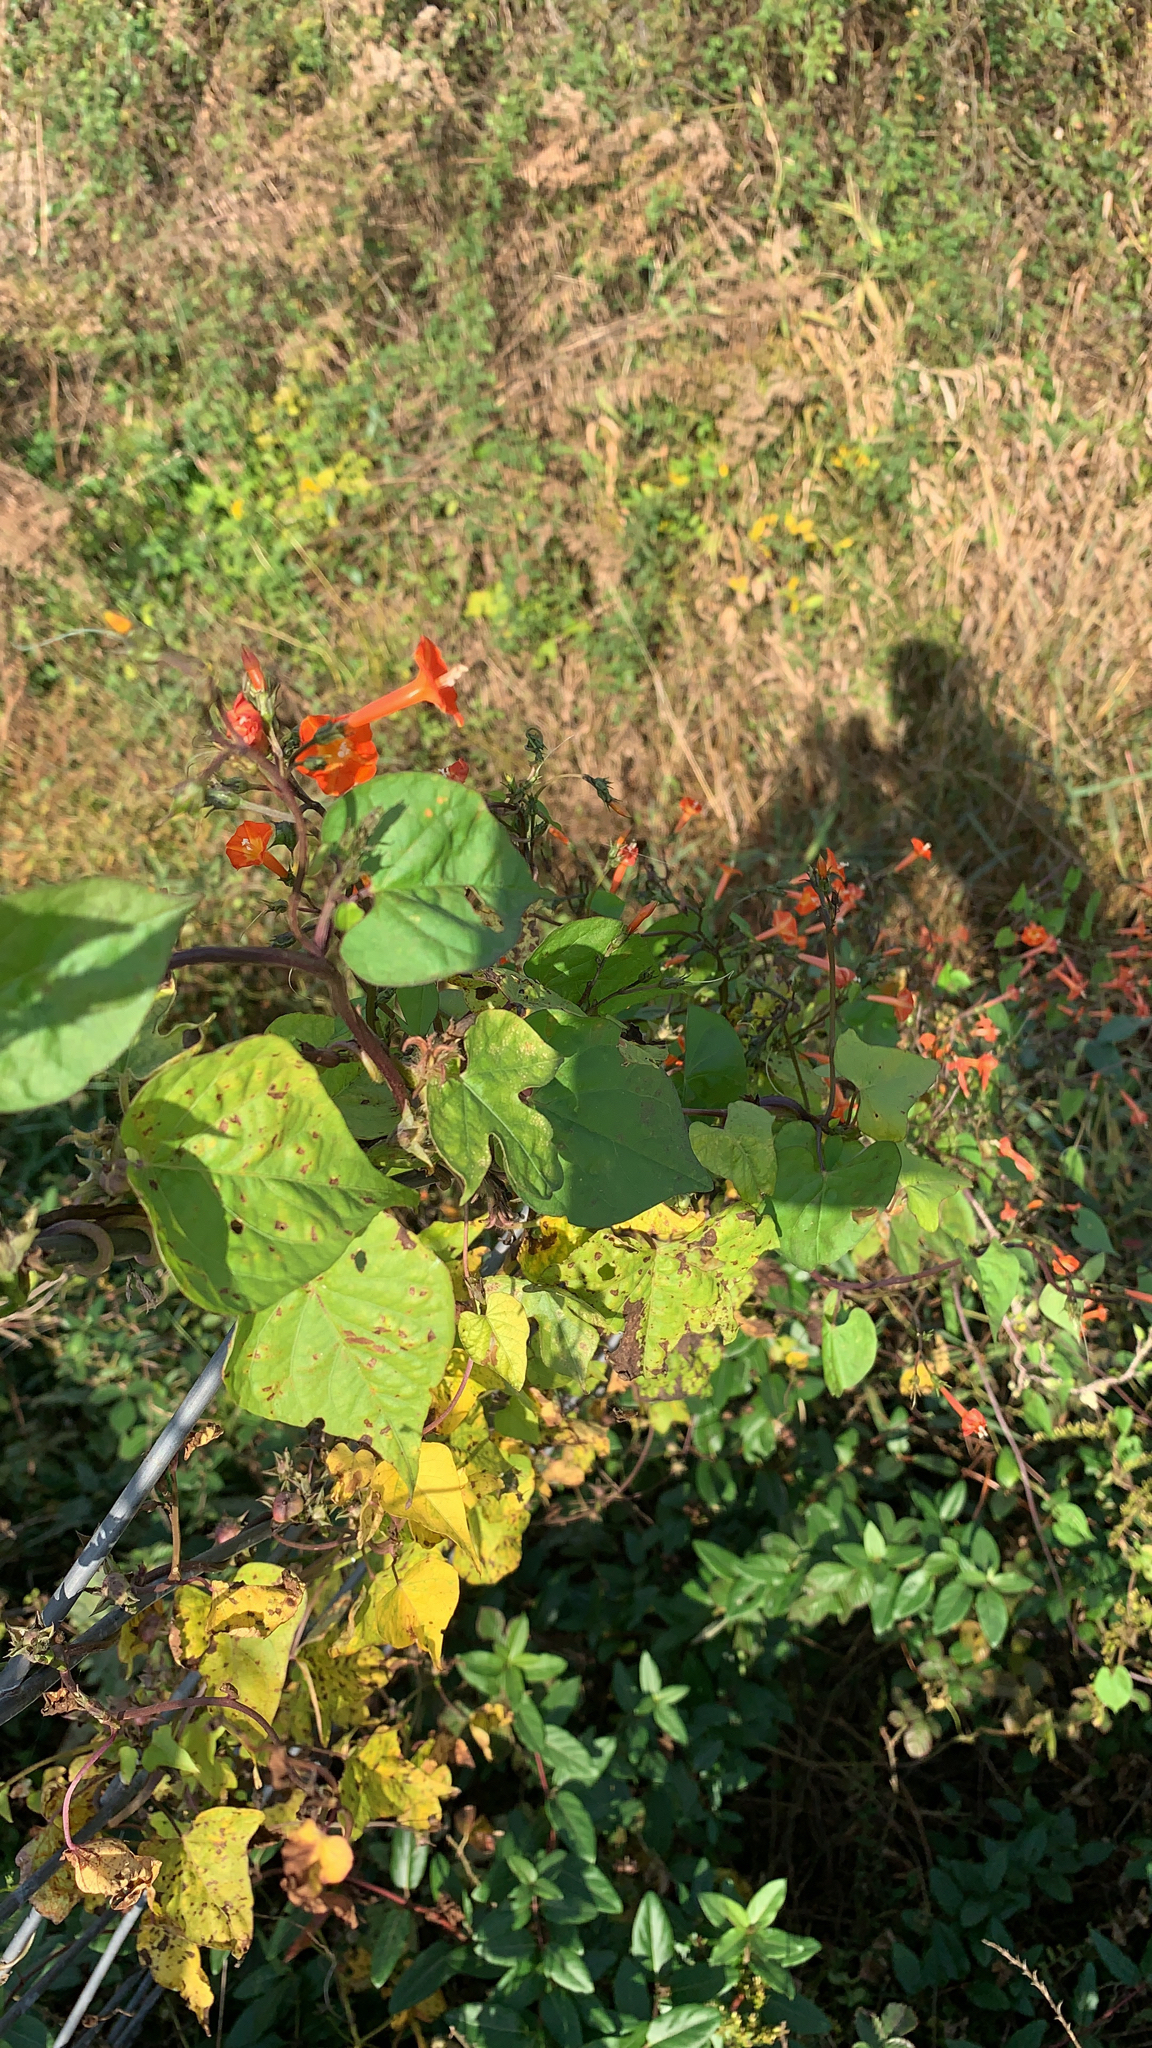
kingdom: Plantae
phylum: Tracheophyta
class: Magnoliopsida
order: Solanales
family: Convolvulaceae
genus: Ipomoea
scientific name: Ipomoea coccinea
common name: Red morning-glory
